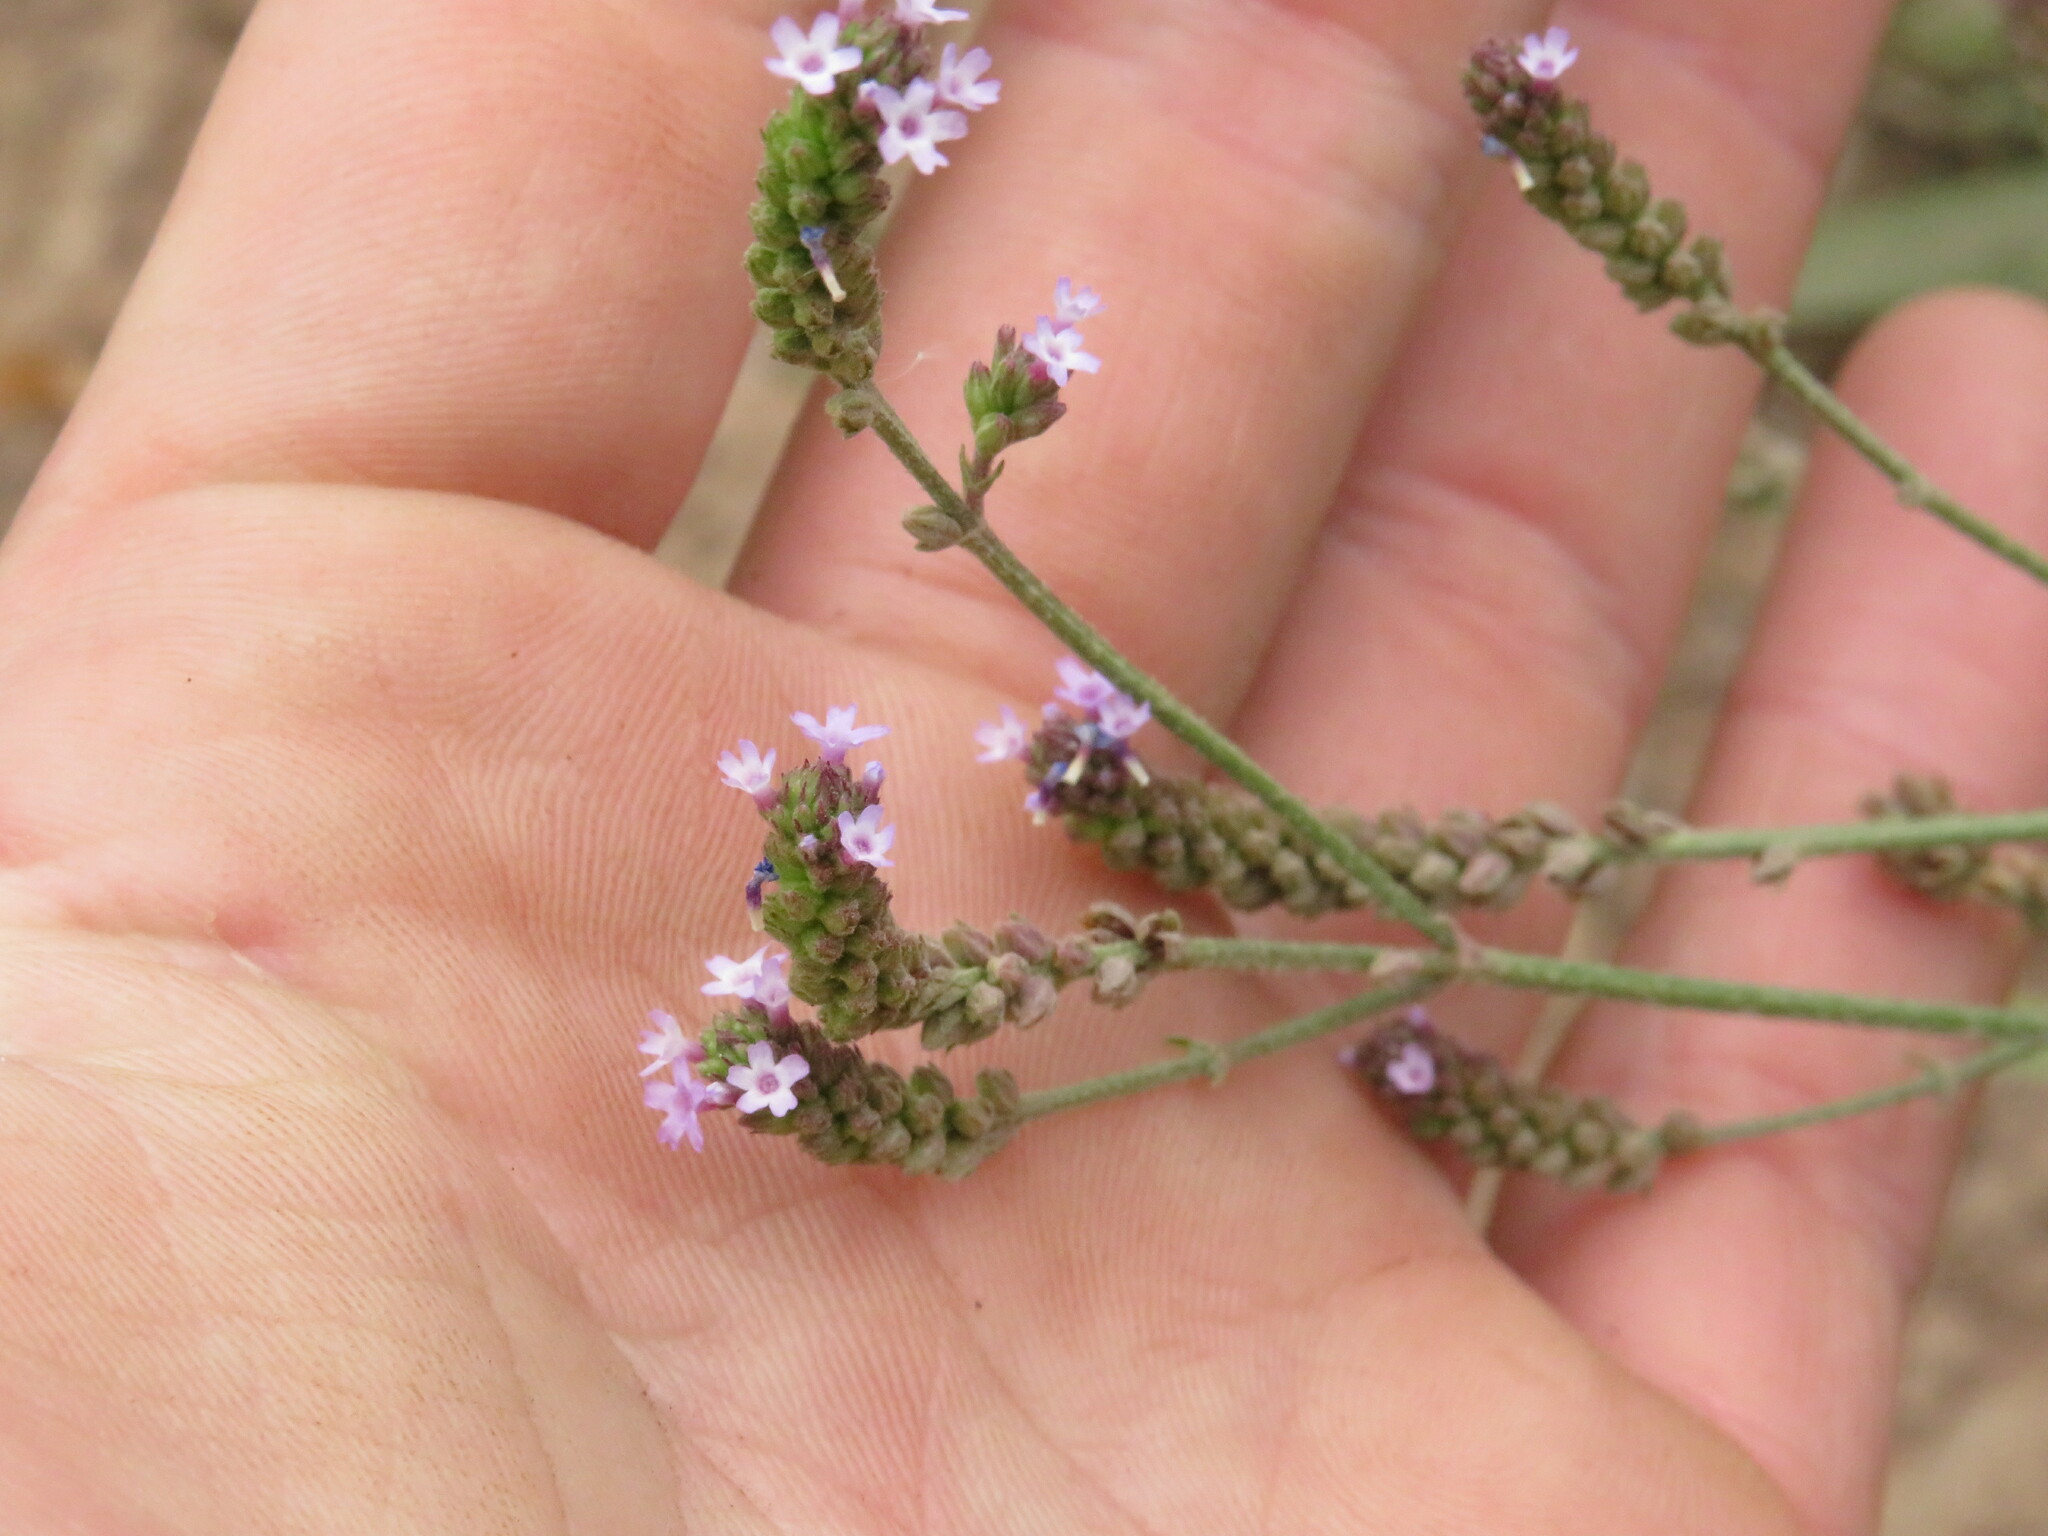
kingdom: Plantae
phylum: Tracheophyta
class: Magnoliopsida
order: Lamiales
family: Verbenaceae
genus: Verbena
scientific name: Verbena litoralis
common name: Seashore vervain
